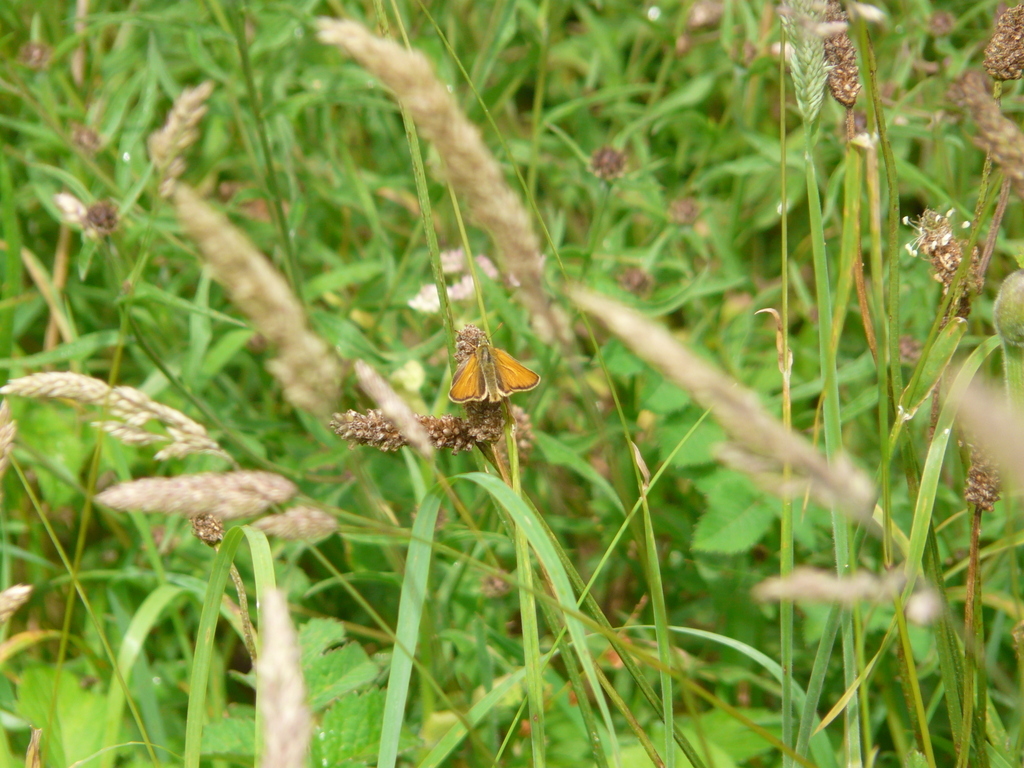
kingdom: Animalia
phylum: Arthropoda
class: Insecta
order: Lepidoptera
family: Hesperiidae
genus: Thymelicus
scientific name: Thymelicus sylvestris
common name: Small skipper
